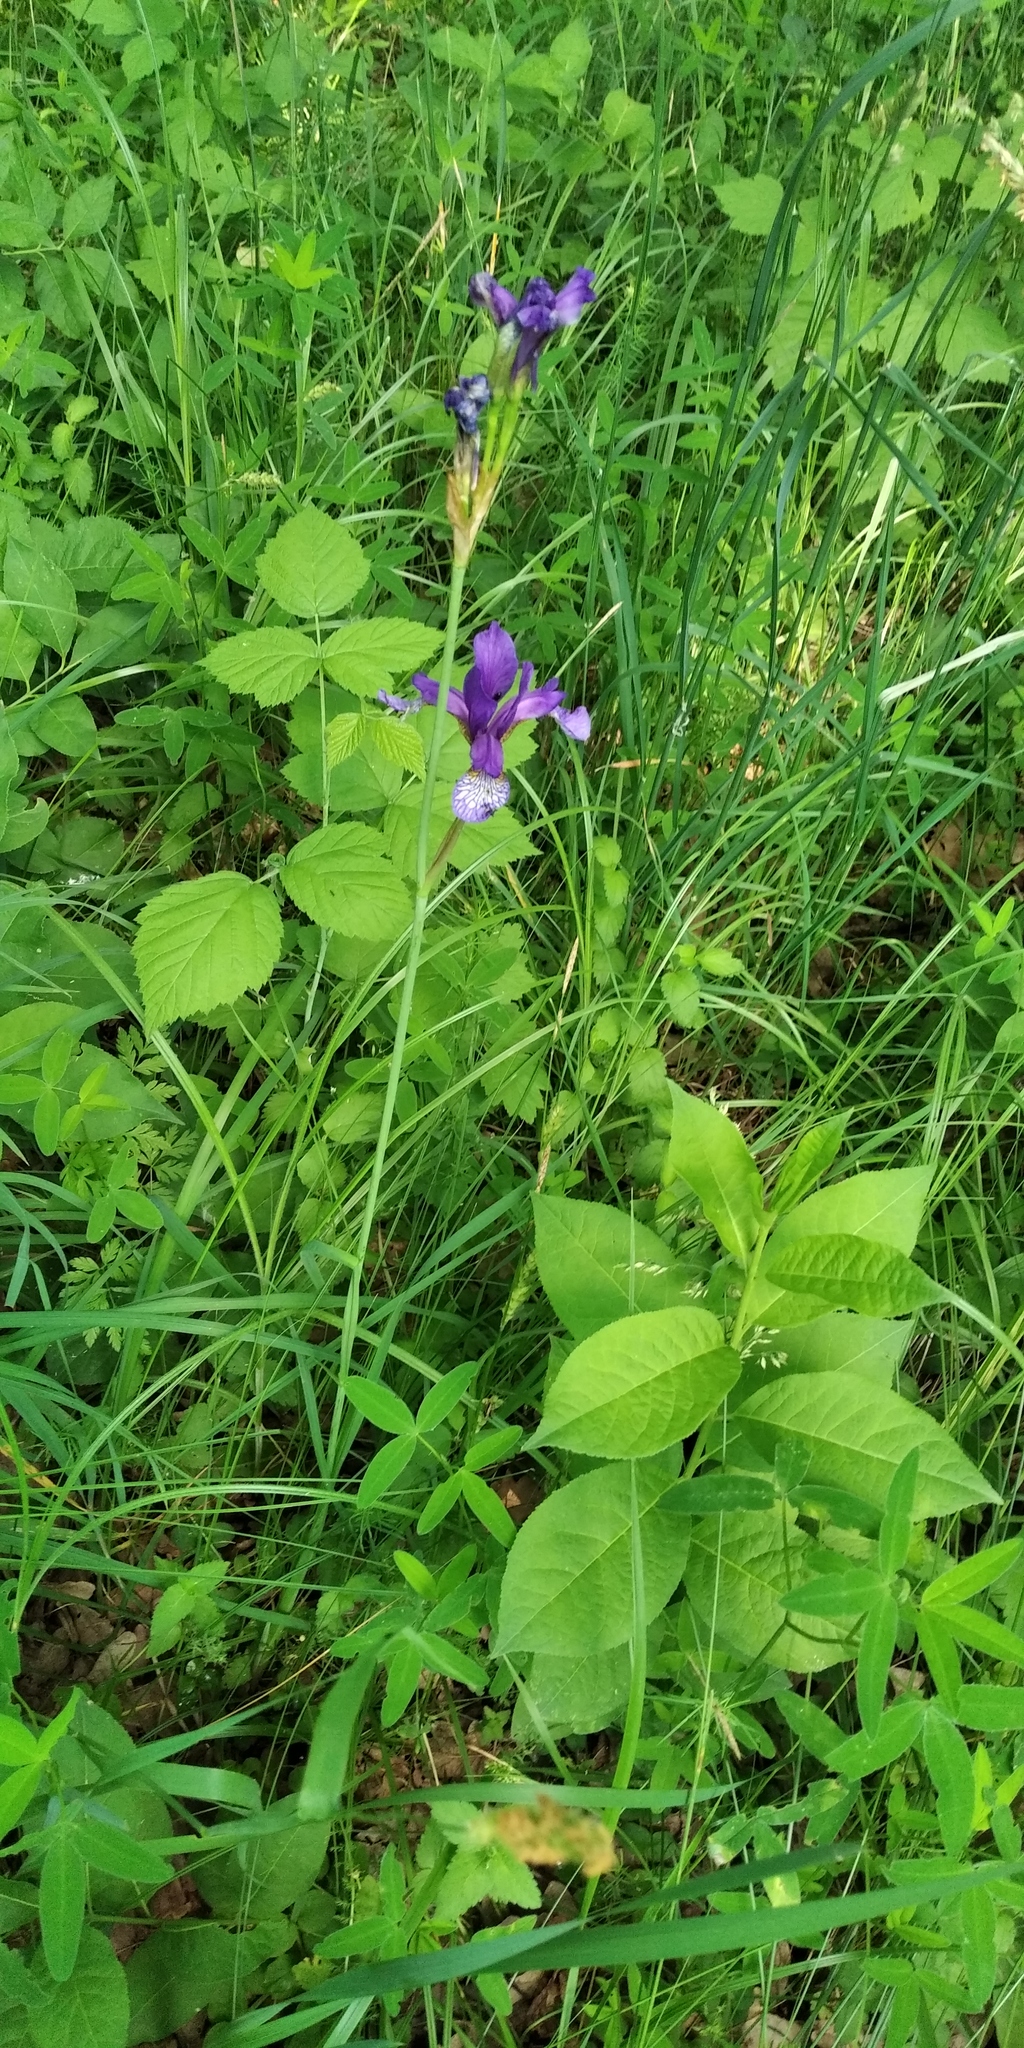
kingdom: Plantae
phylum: Tracheophyta
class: Liliopsida
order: Asparagales
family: Iridaceae
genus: Iris
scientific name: Iris sibirica
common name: Siberian iris
